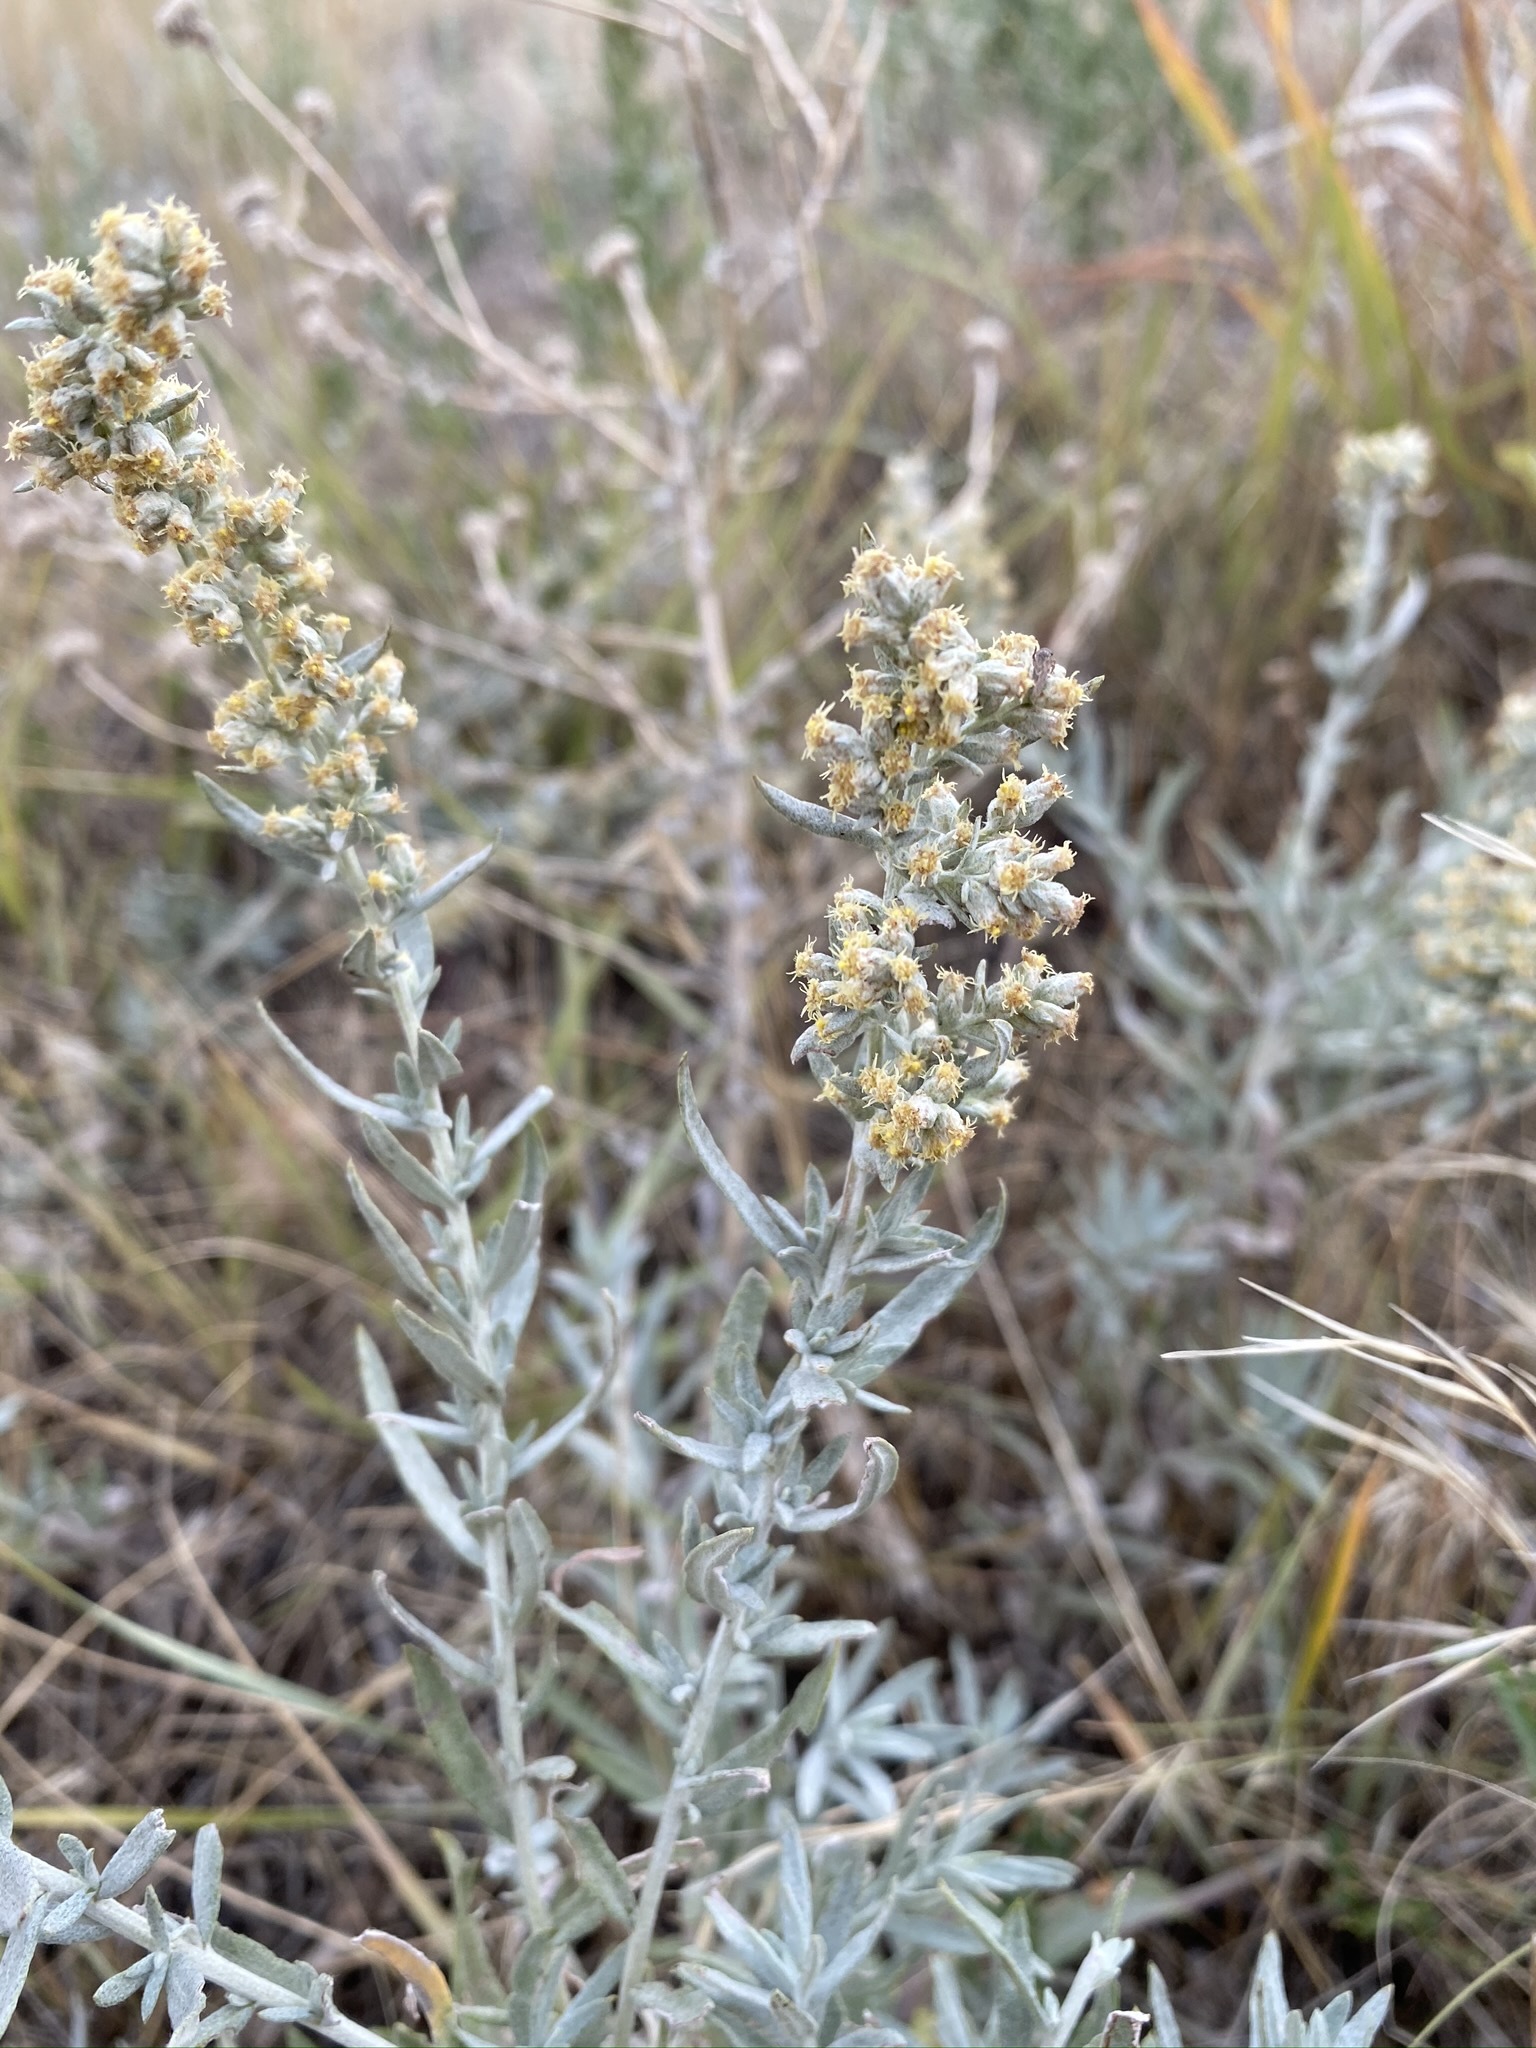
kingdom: Plantae
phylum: Tracheophyta
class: Magnoliopsida
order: Asterales
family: Asteraceae
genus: Artemisia
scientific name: Artemisia ludoviciana
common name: Western mugwort
